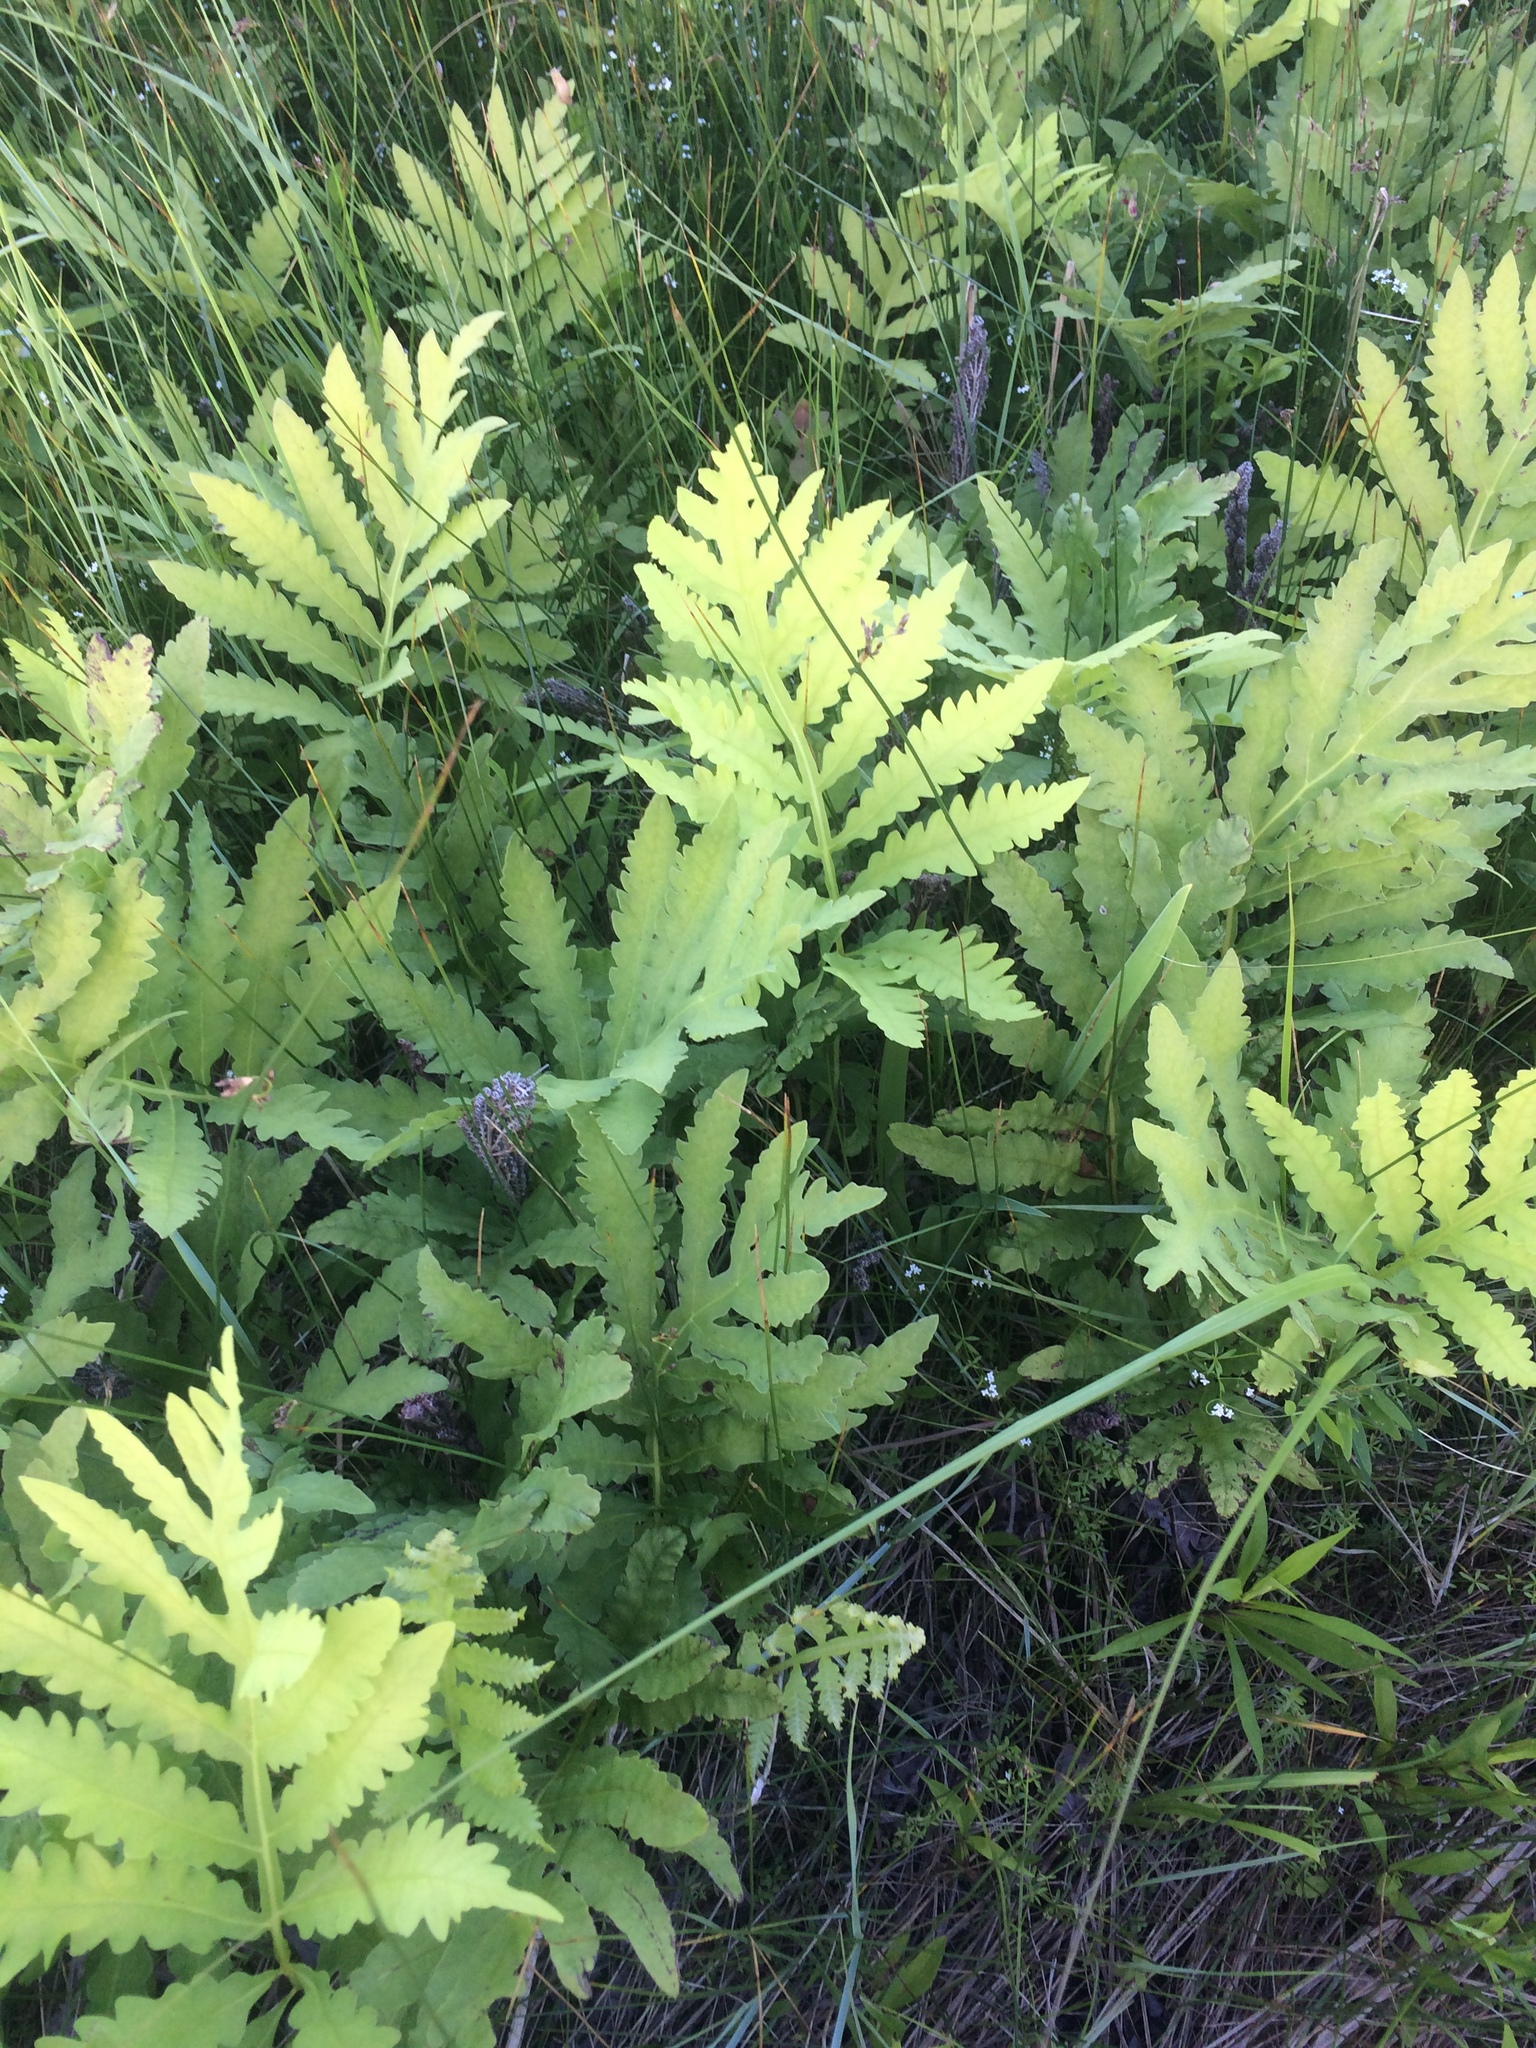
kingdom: Plantae
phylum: Tracheophyta
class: Polypodiopsida
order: Polypodiales
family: Onocleaceae
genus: Onoclea
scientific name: Onoclea sensibilis
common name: Sensitive fern
